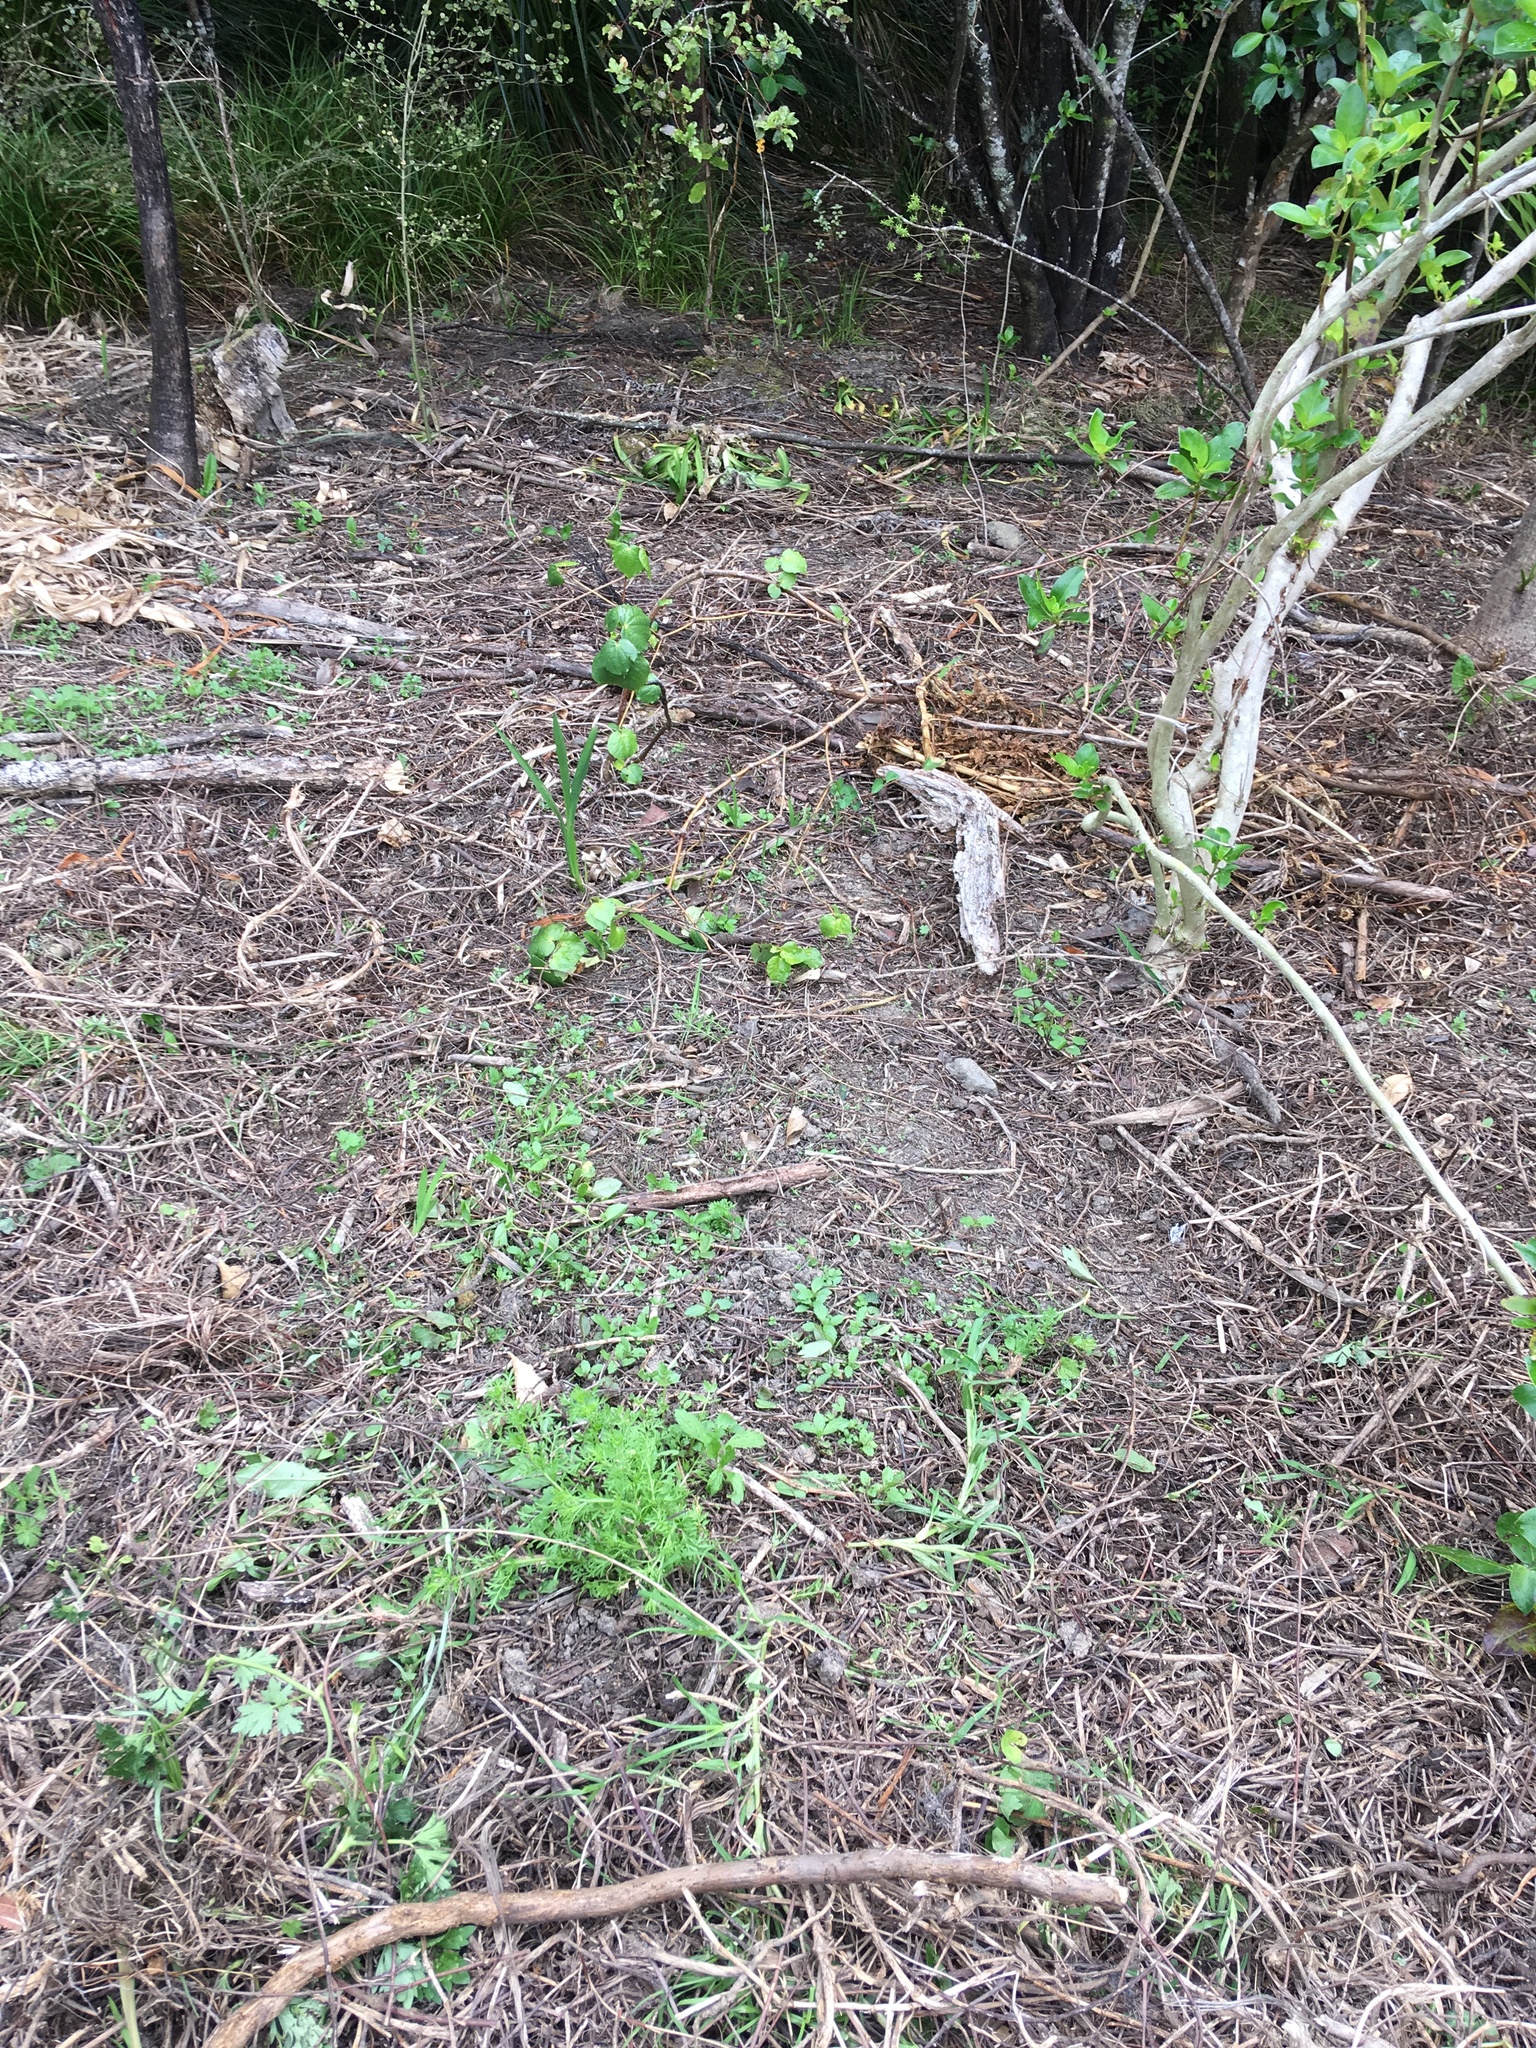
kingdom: Plantae
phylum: Tracheophyta
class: Magnoliopsida
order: Brassicales
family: Brassicaceae
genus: Lepidium
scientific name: Lepidium didymum
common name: Lesser swinecress
